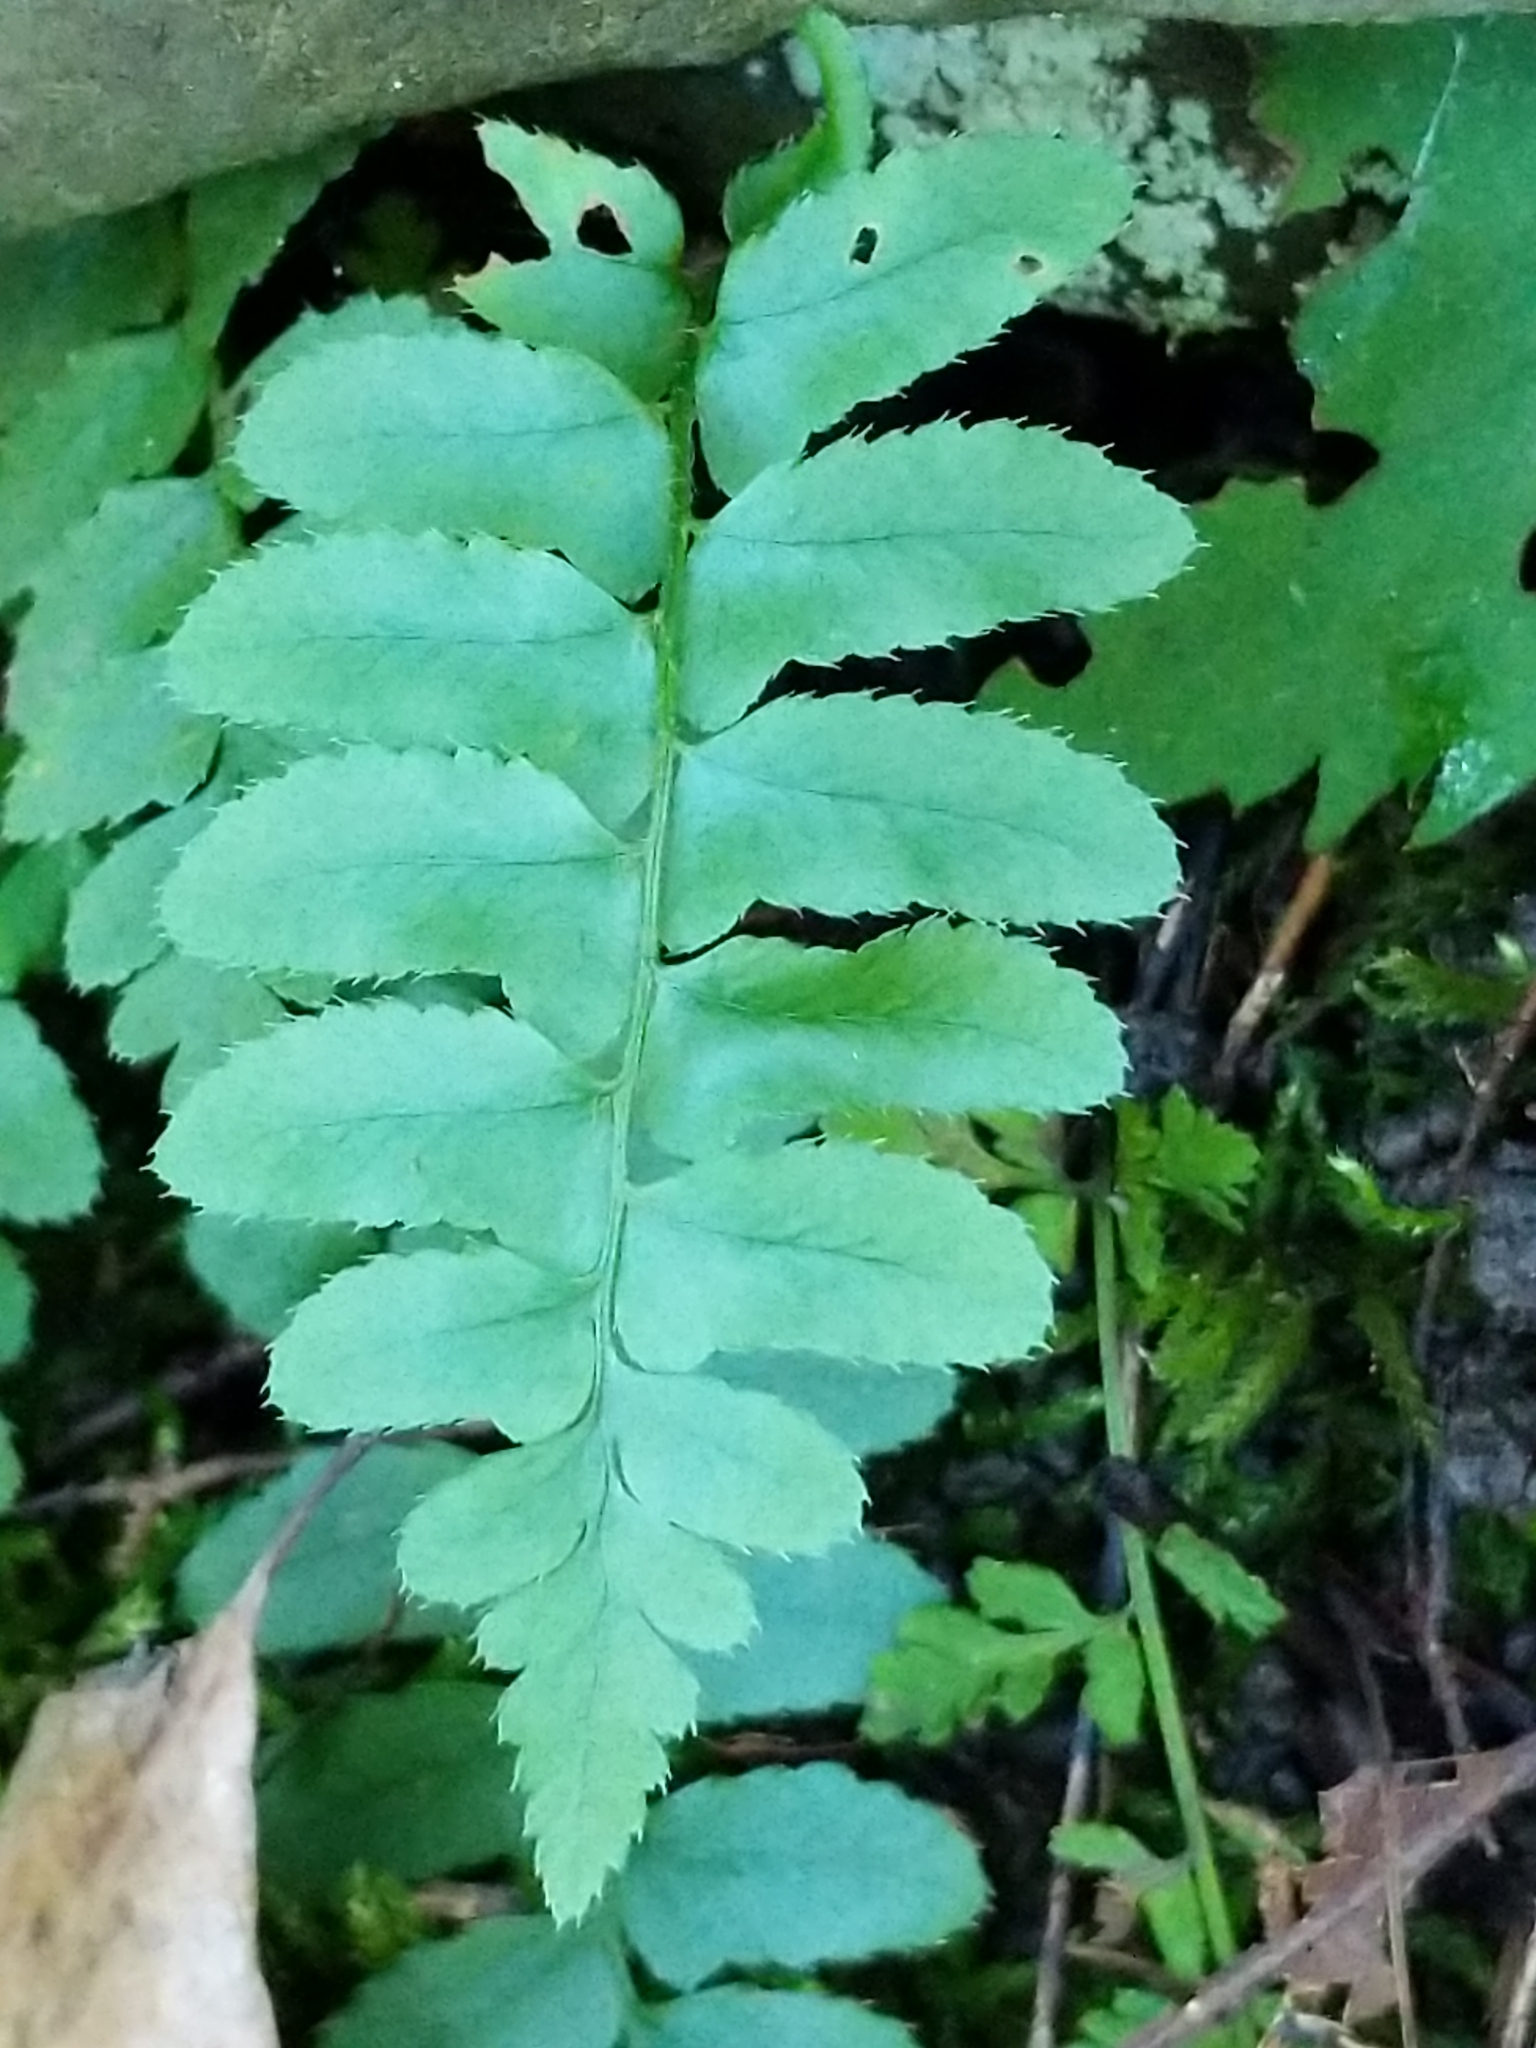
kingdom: Plantae
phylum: Tracheophyta
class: Polypodiopsida
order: Polypodiales
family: Dryopteridaceae
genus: Polystichum
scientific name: Polystichum acrostichoides
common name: Christmas fern
